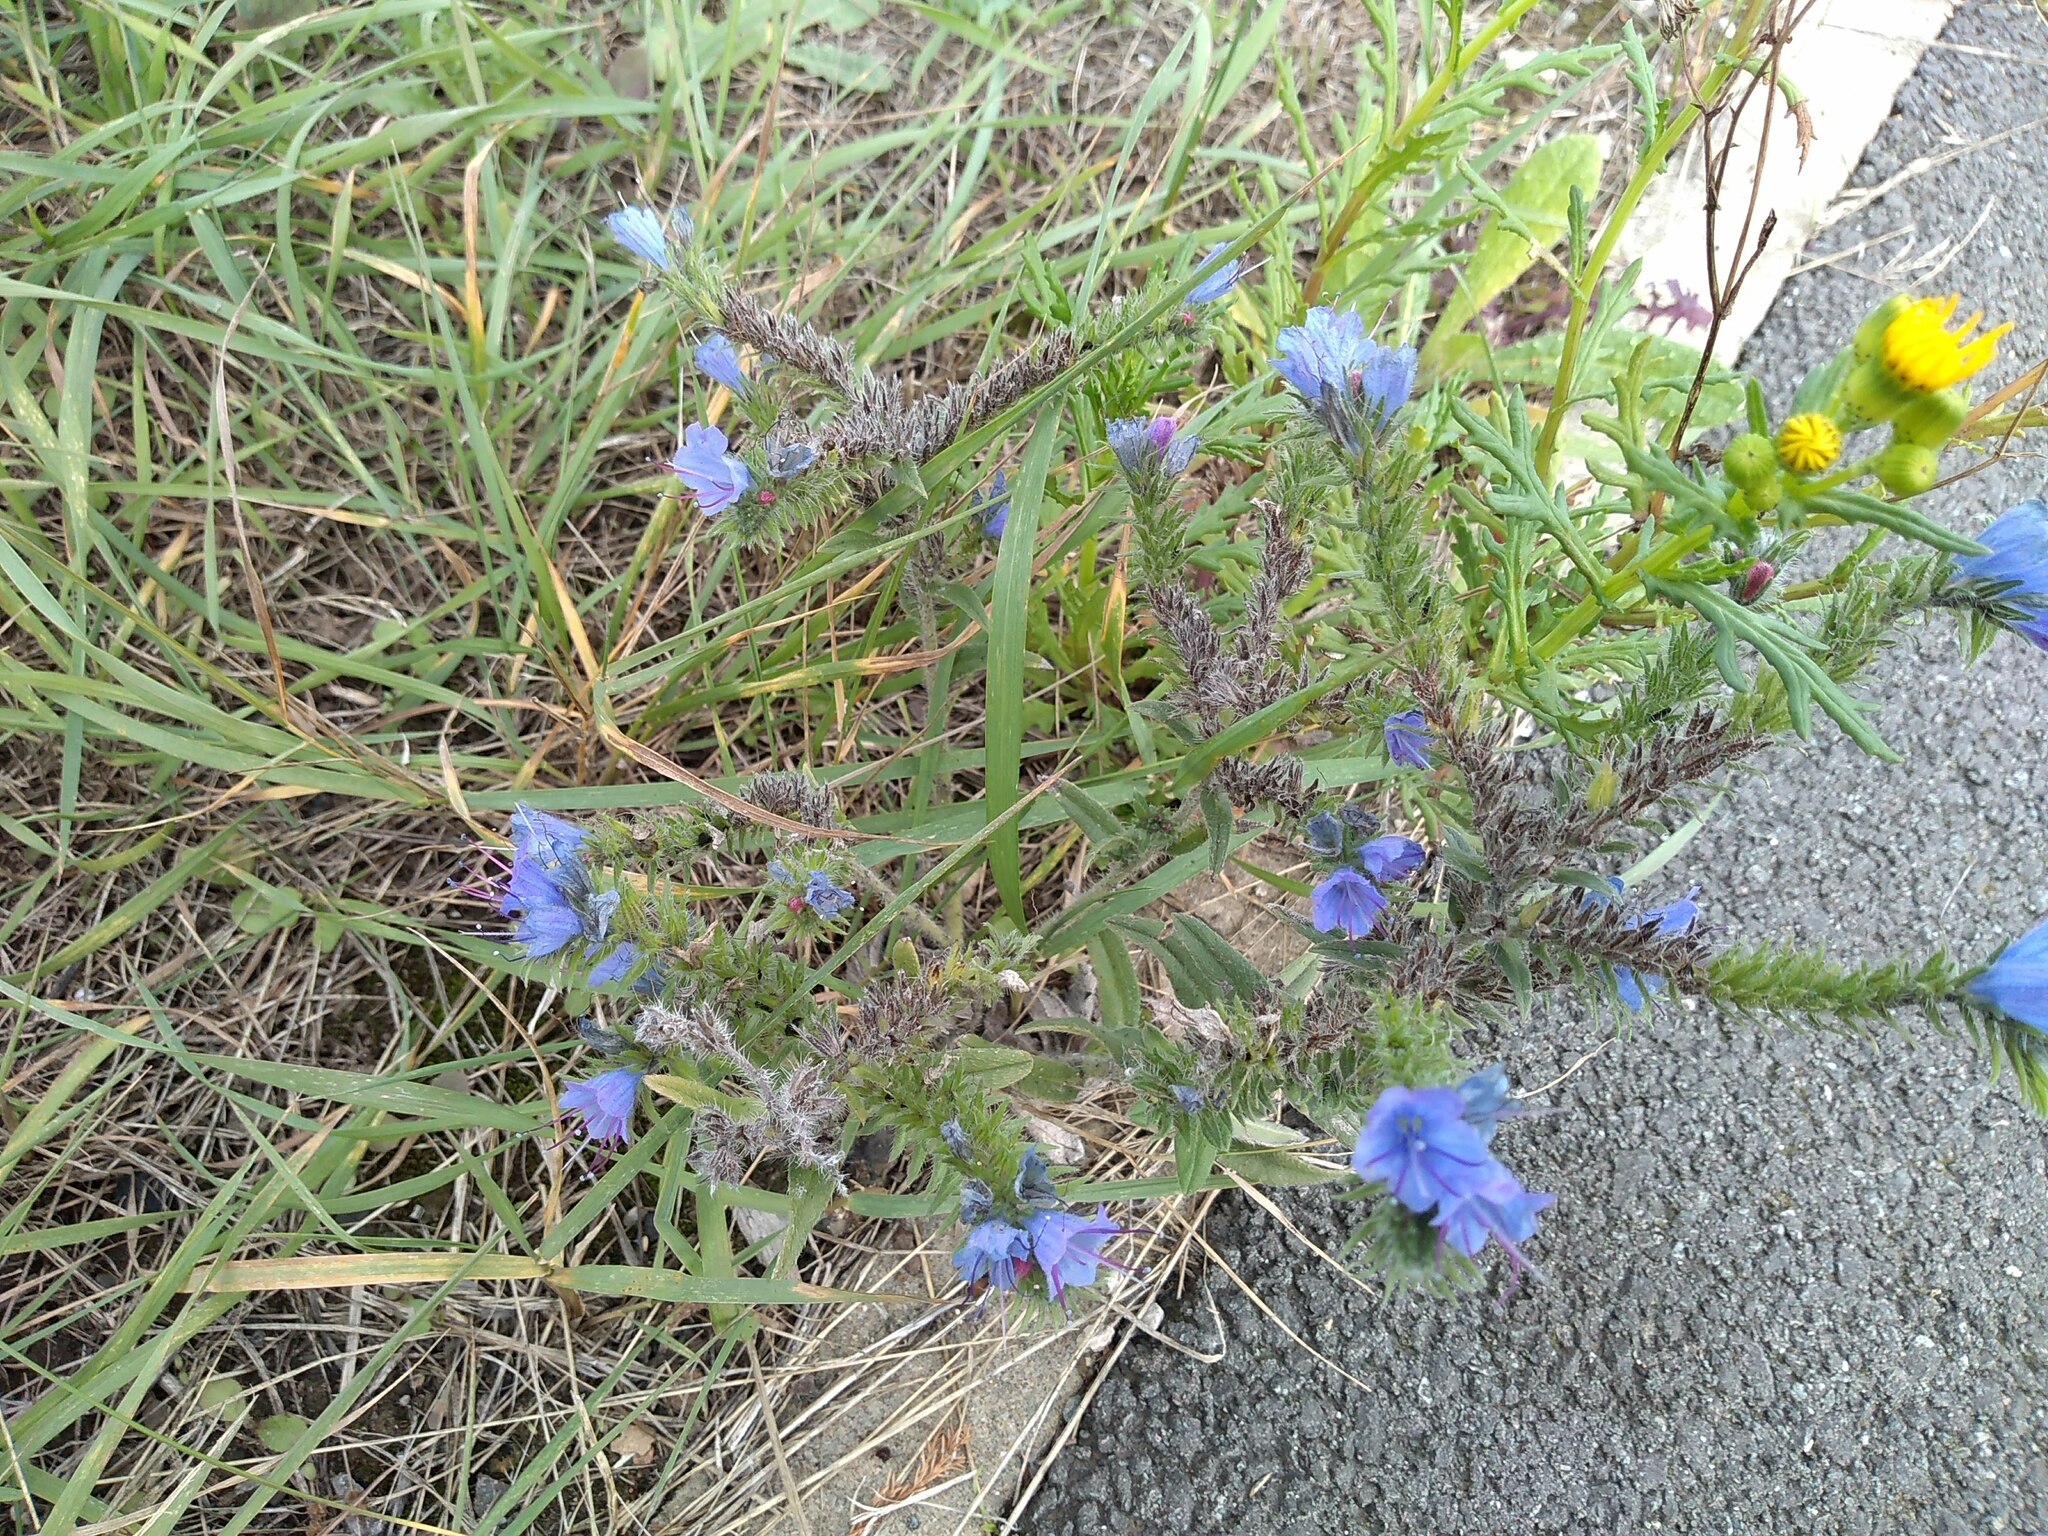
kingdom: Plantae
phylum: Tracheophyta
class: Magnoliopsida
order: Boraginales
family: Boraginaceae
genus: Echium
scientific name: Echium vulgare
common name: Common viper's bugloss
